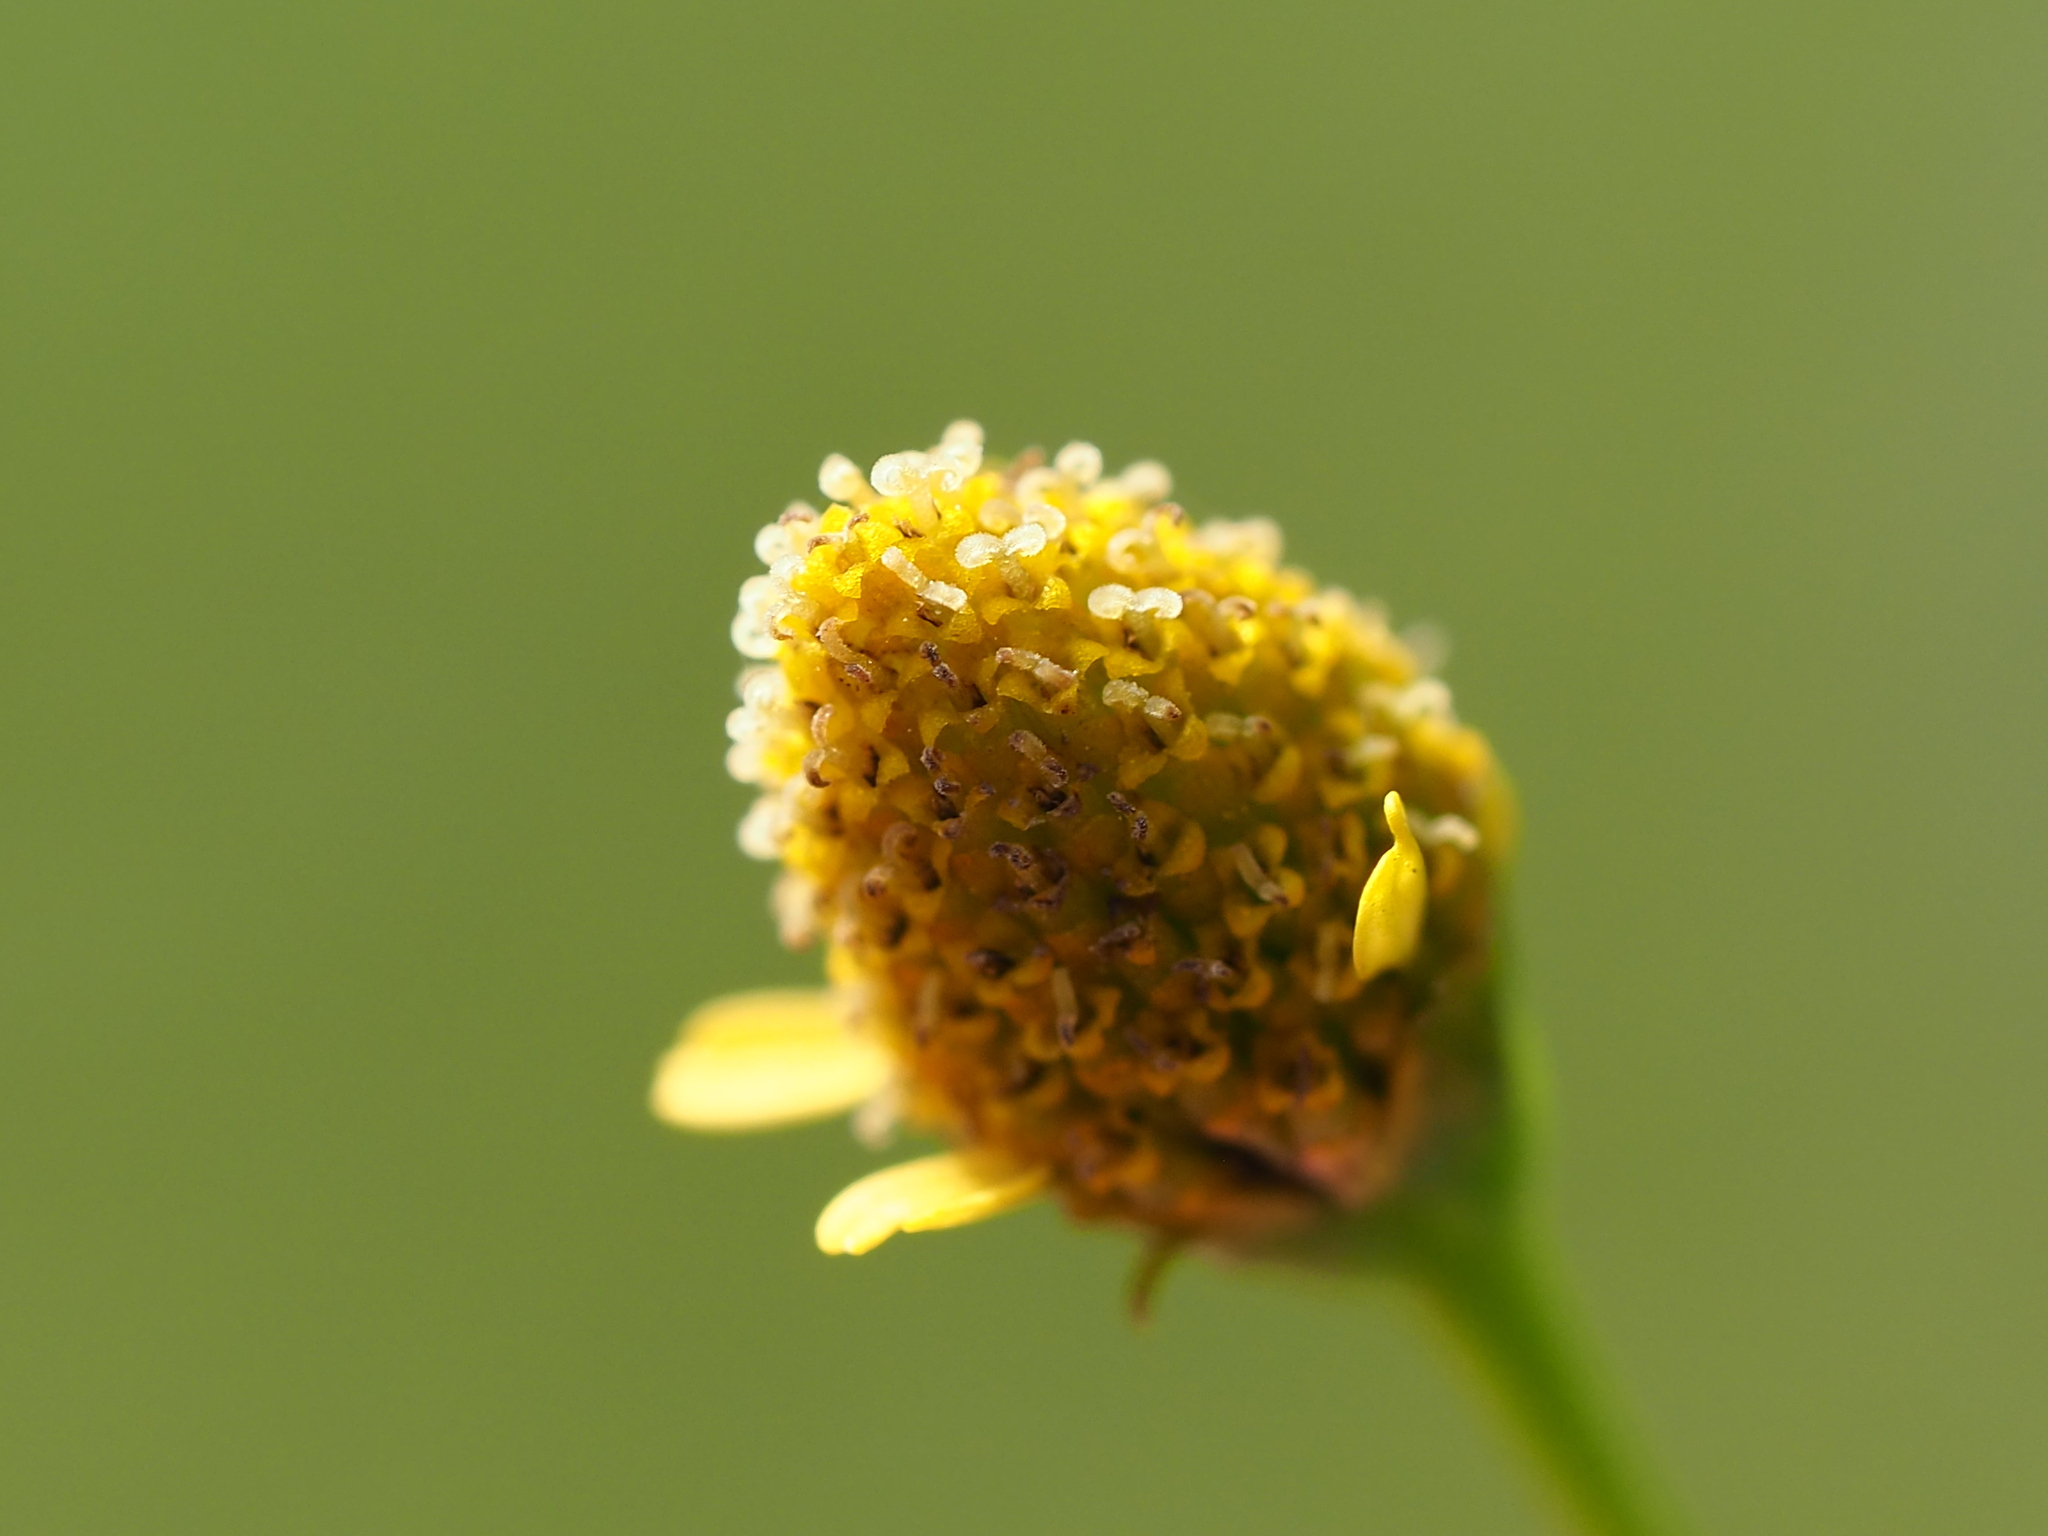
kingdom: Plantae
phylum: Tracheophyta
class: Magnoliopsida
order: Asterales
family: Asteraceae
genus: Acmella
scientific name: Acmella uliginosa
